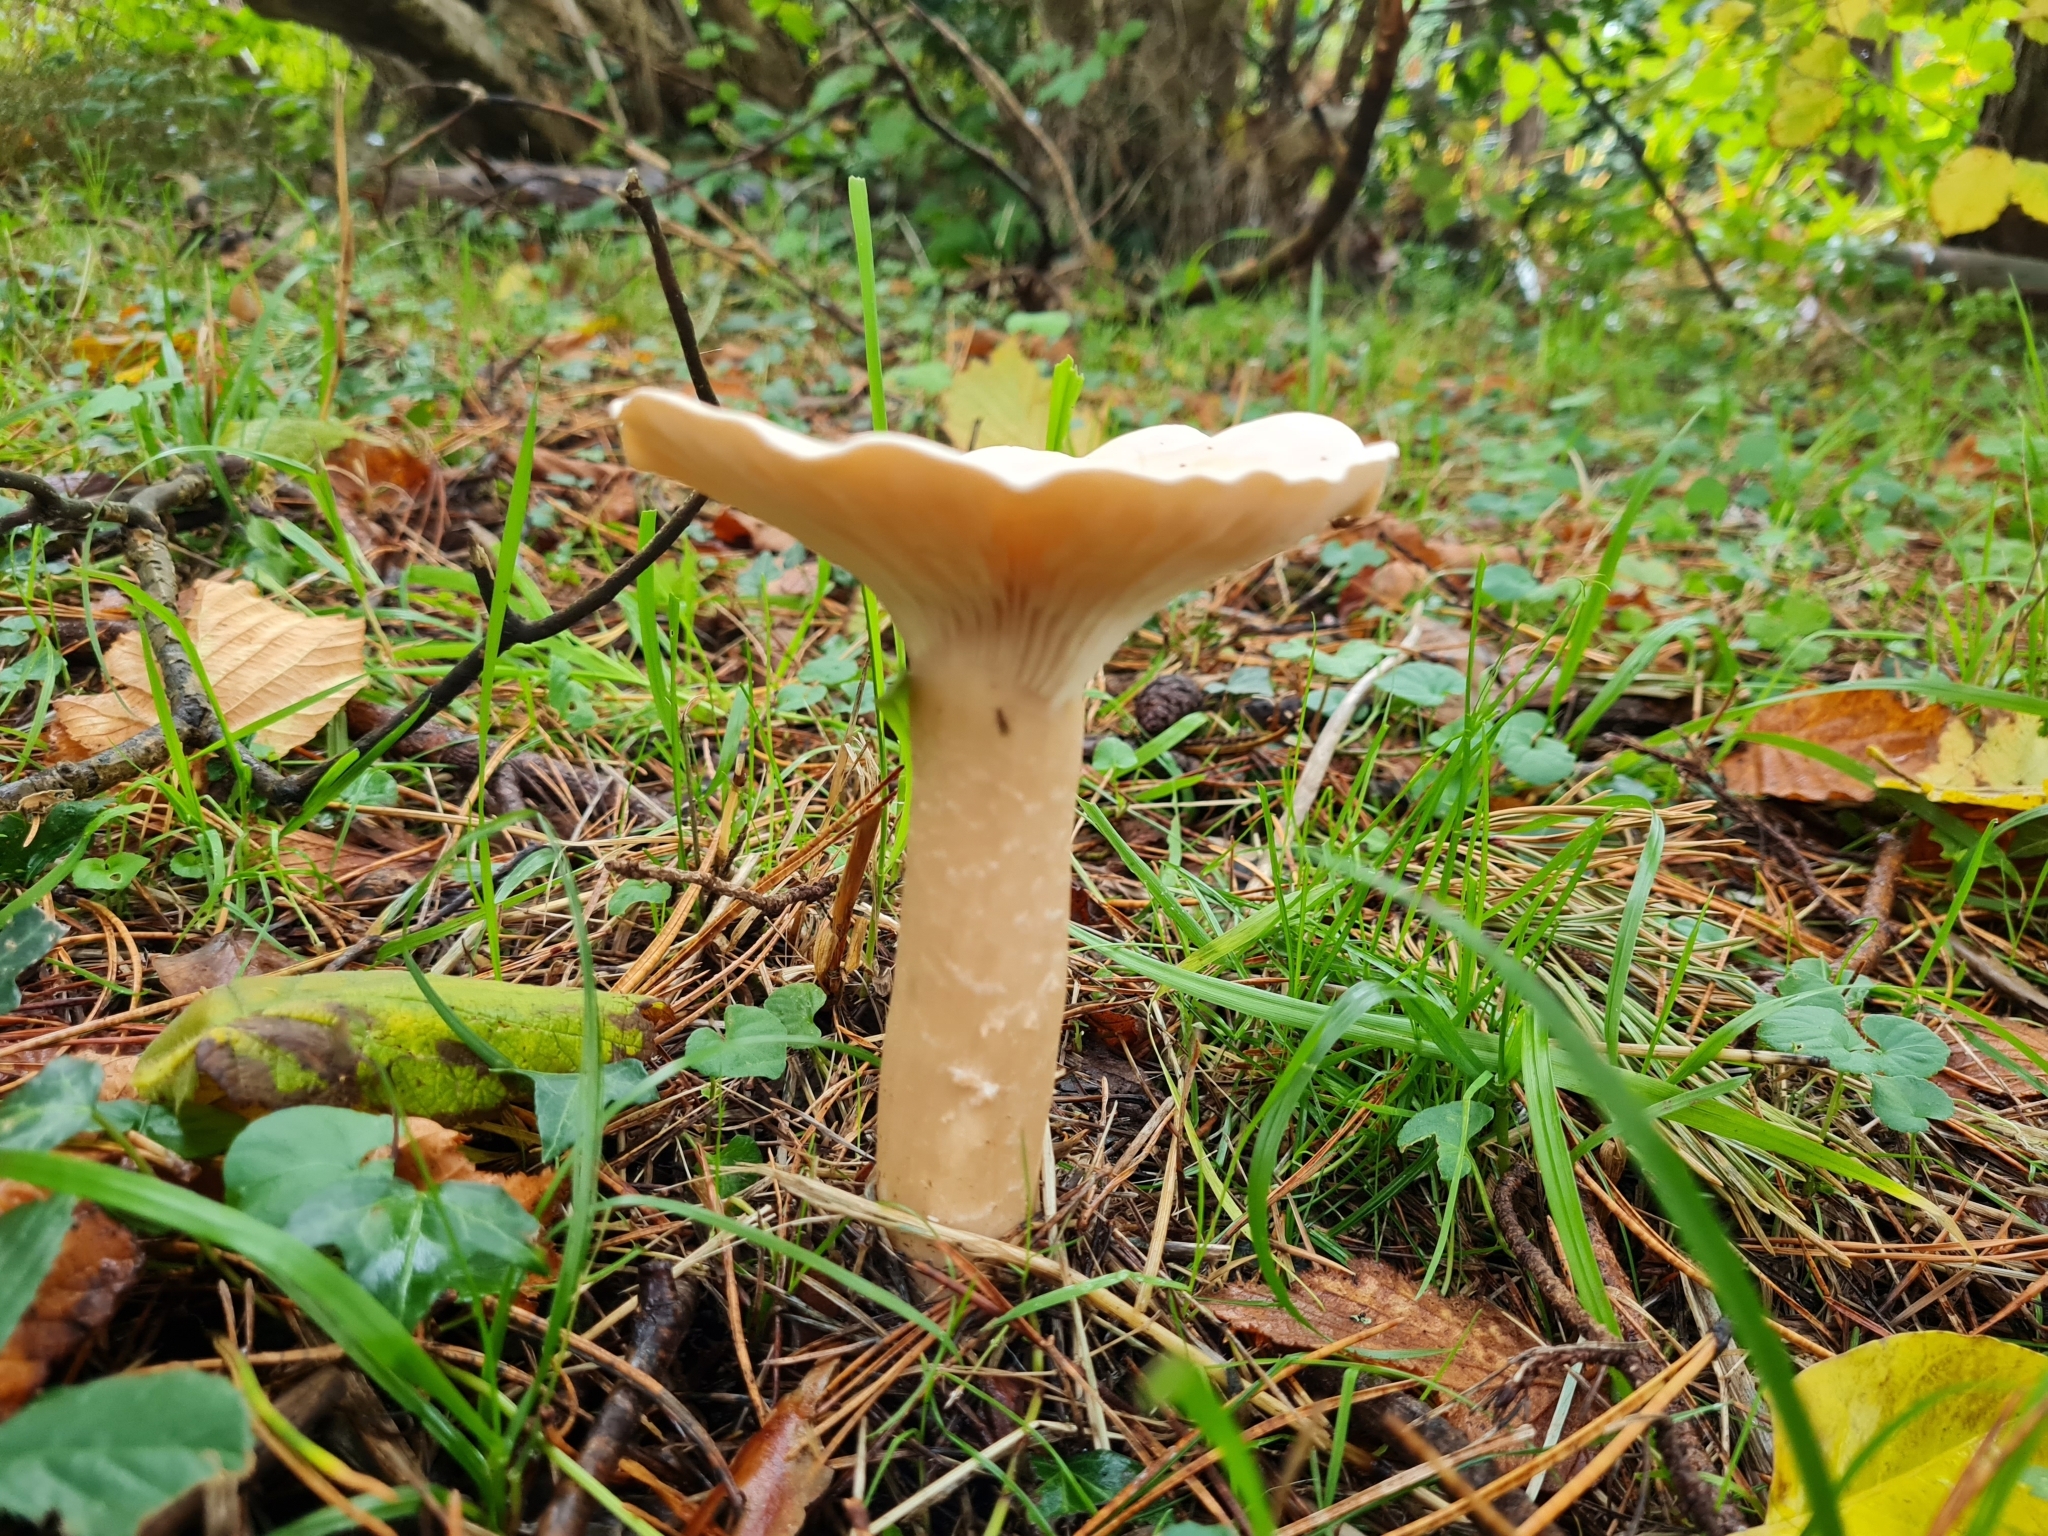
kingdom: Fungi
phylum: Basidiomycota
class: Agaricomycetes
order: Agaricales
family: Tricholomataceae
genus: Infundibulicybe
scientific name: Infundibulicybe geotropa
